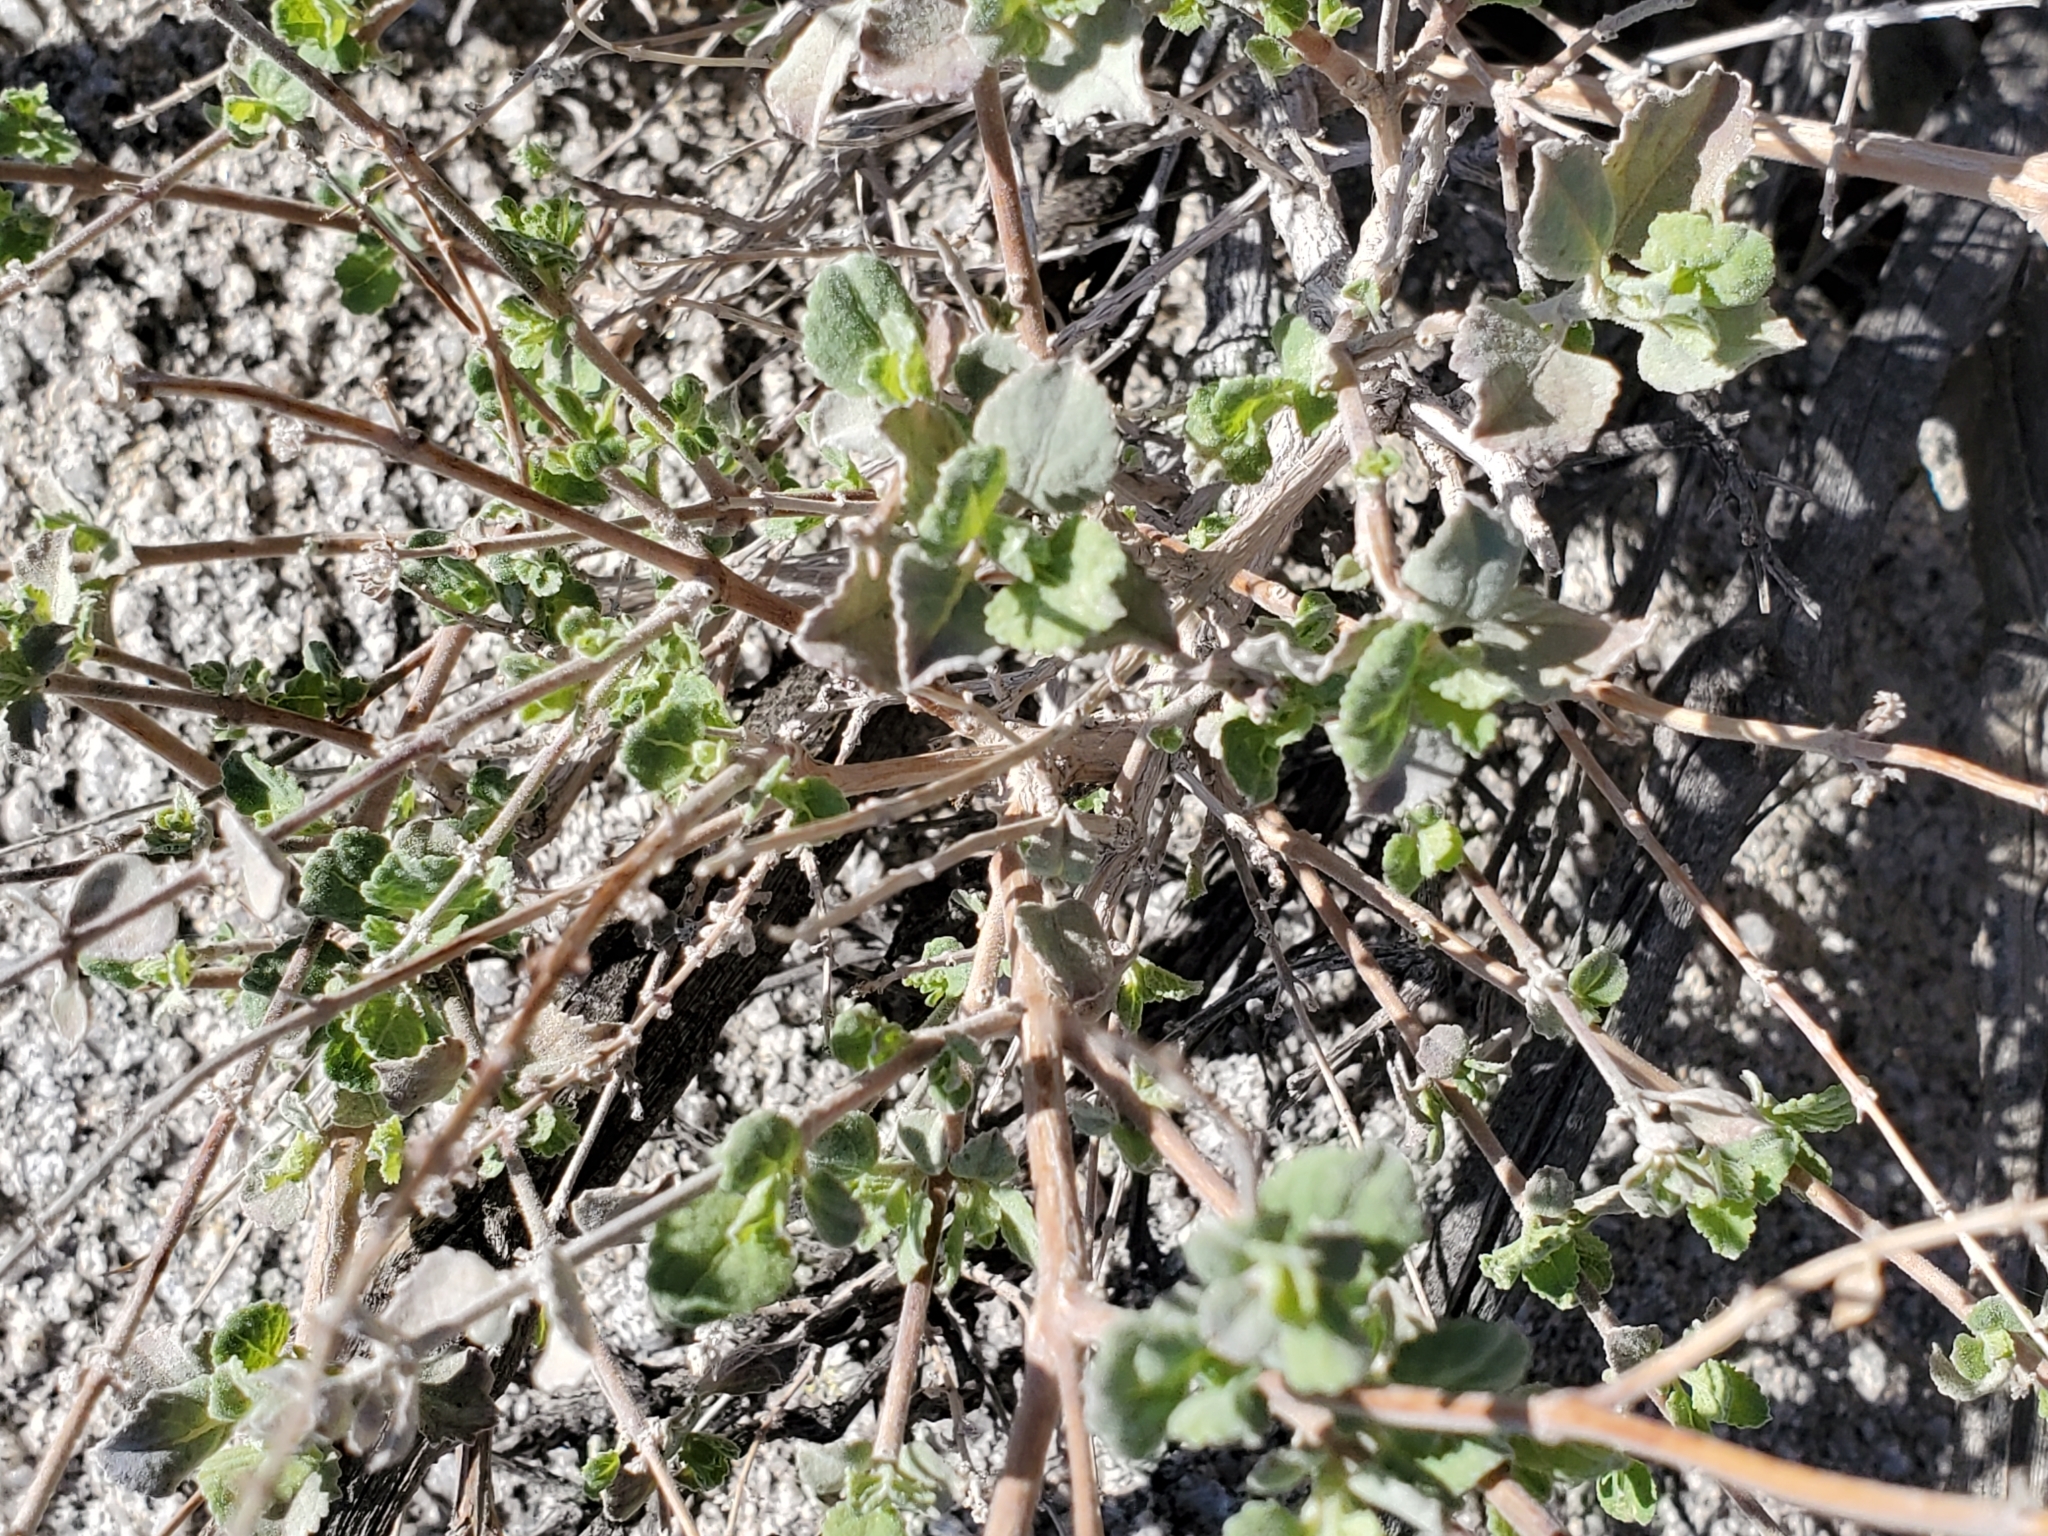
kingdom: Plantae
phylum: Tracheophyta
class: Magnoliopsida
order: Lamiales
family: Lamiaceae
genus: Condea
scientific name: Condea emoryi
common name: Chia
